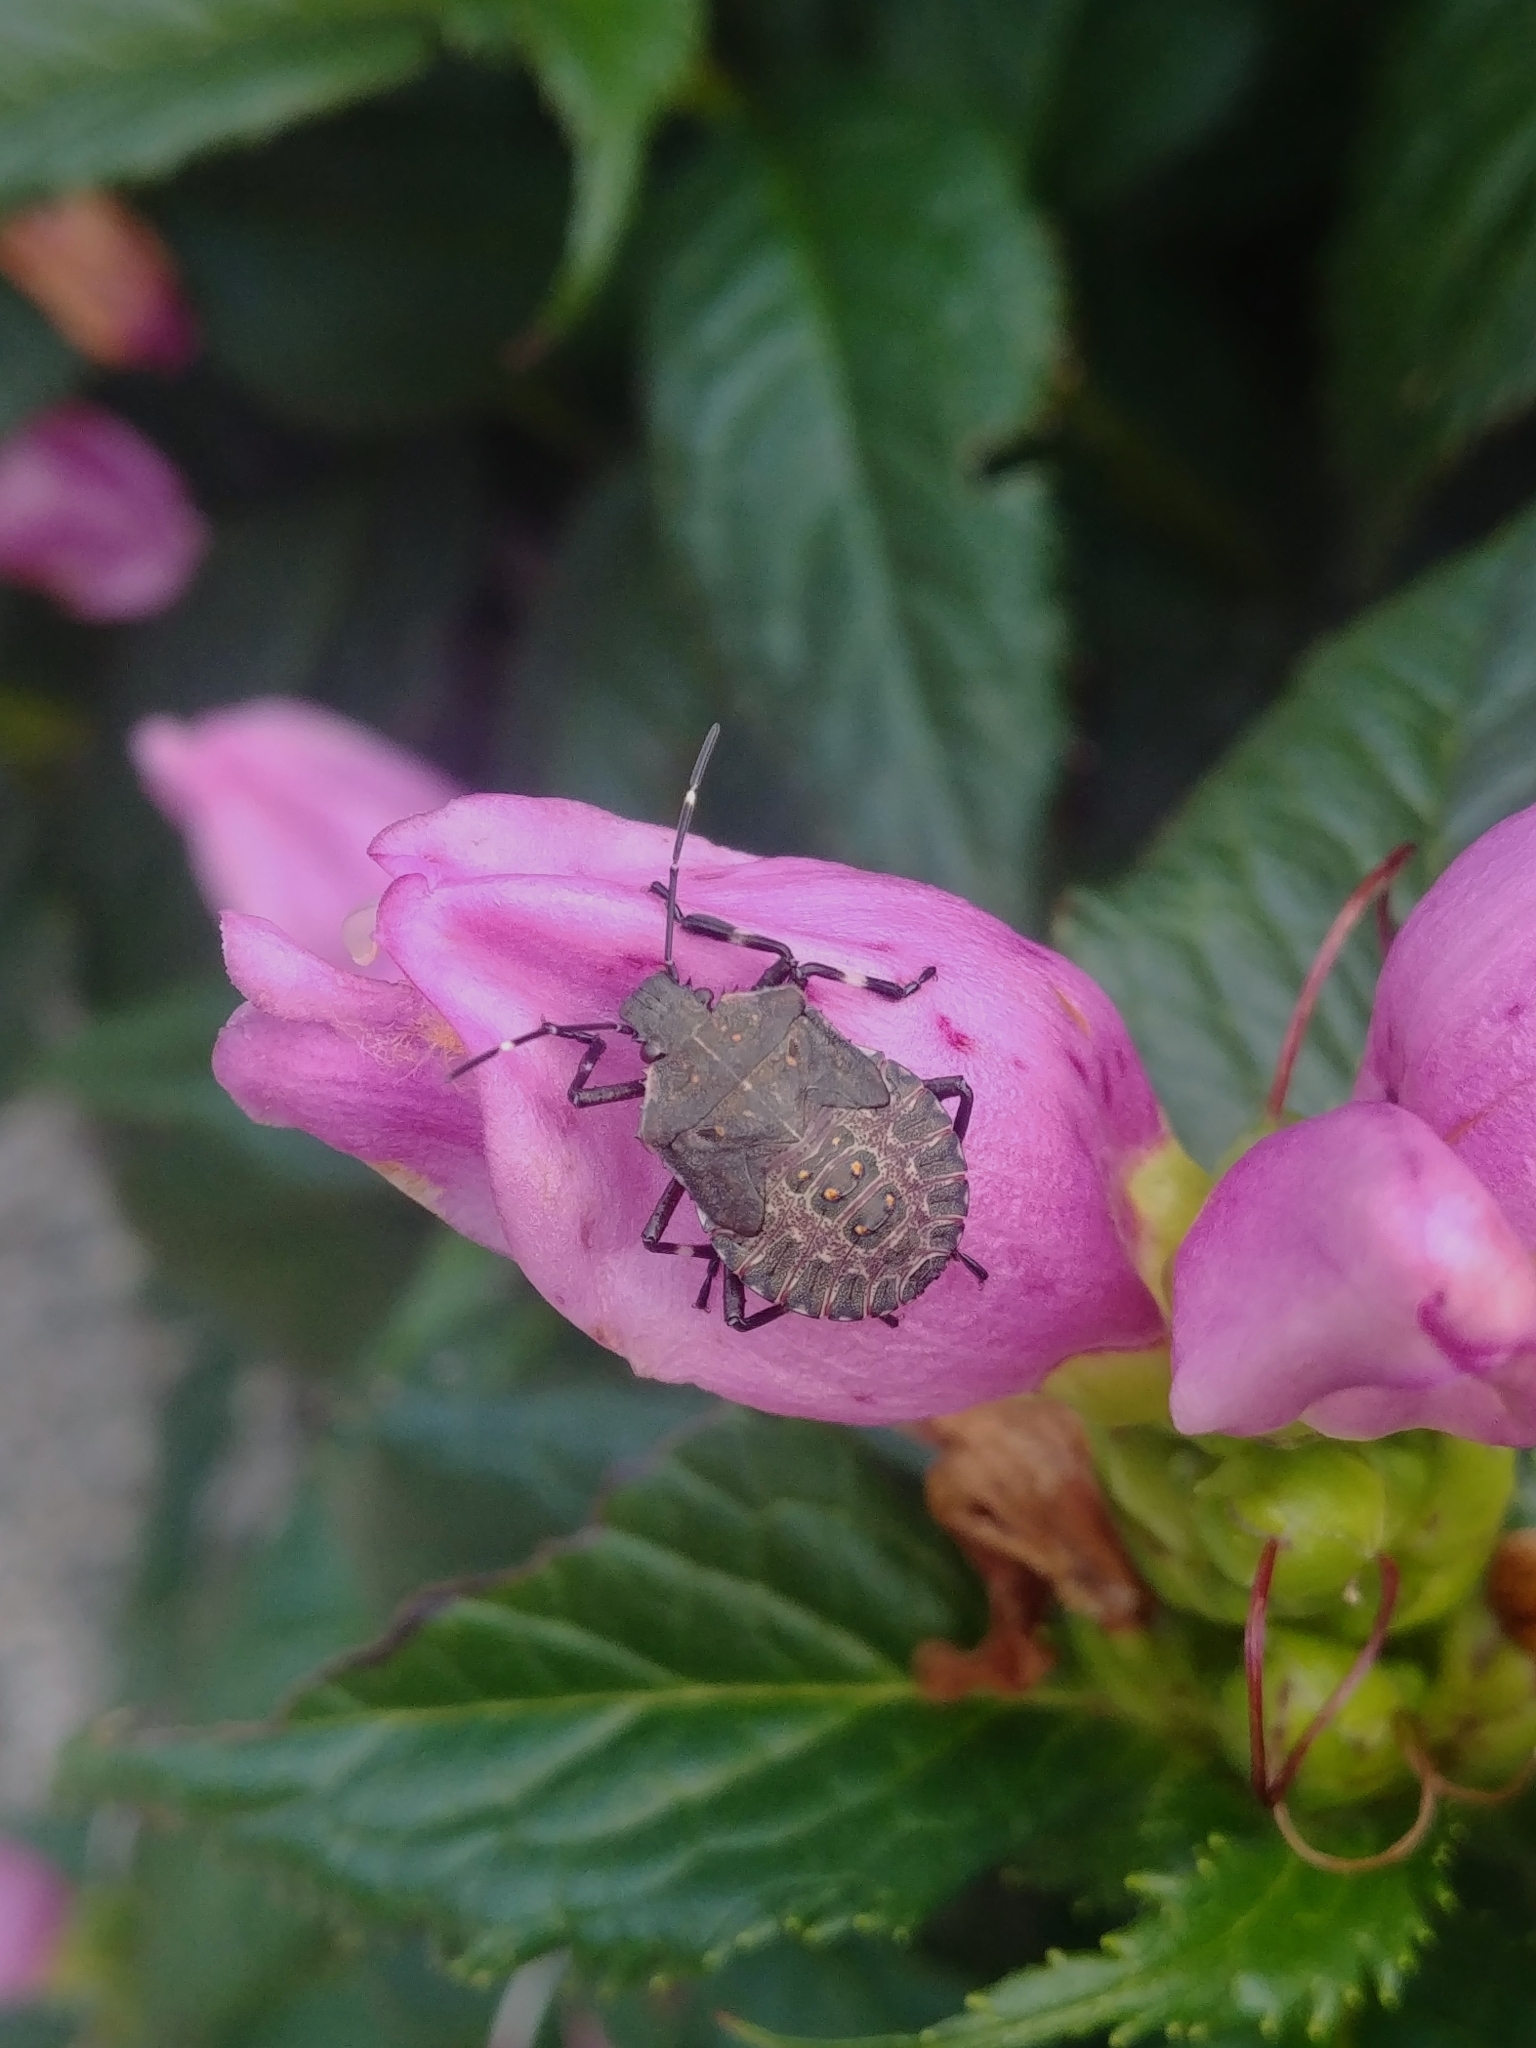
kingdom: Animalia
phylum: Arthropoda
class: Insecta
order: Hemiptera
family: Pentatomidae
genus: Halyomorpha
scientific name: Halyomorpha halys
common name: Brown marmorated stink bug
